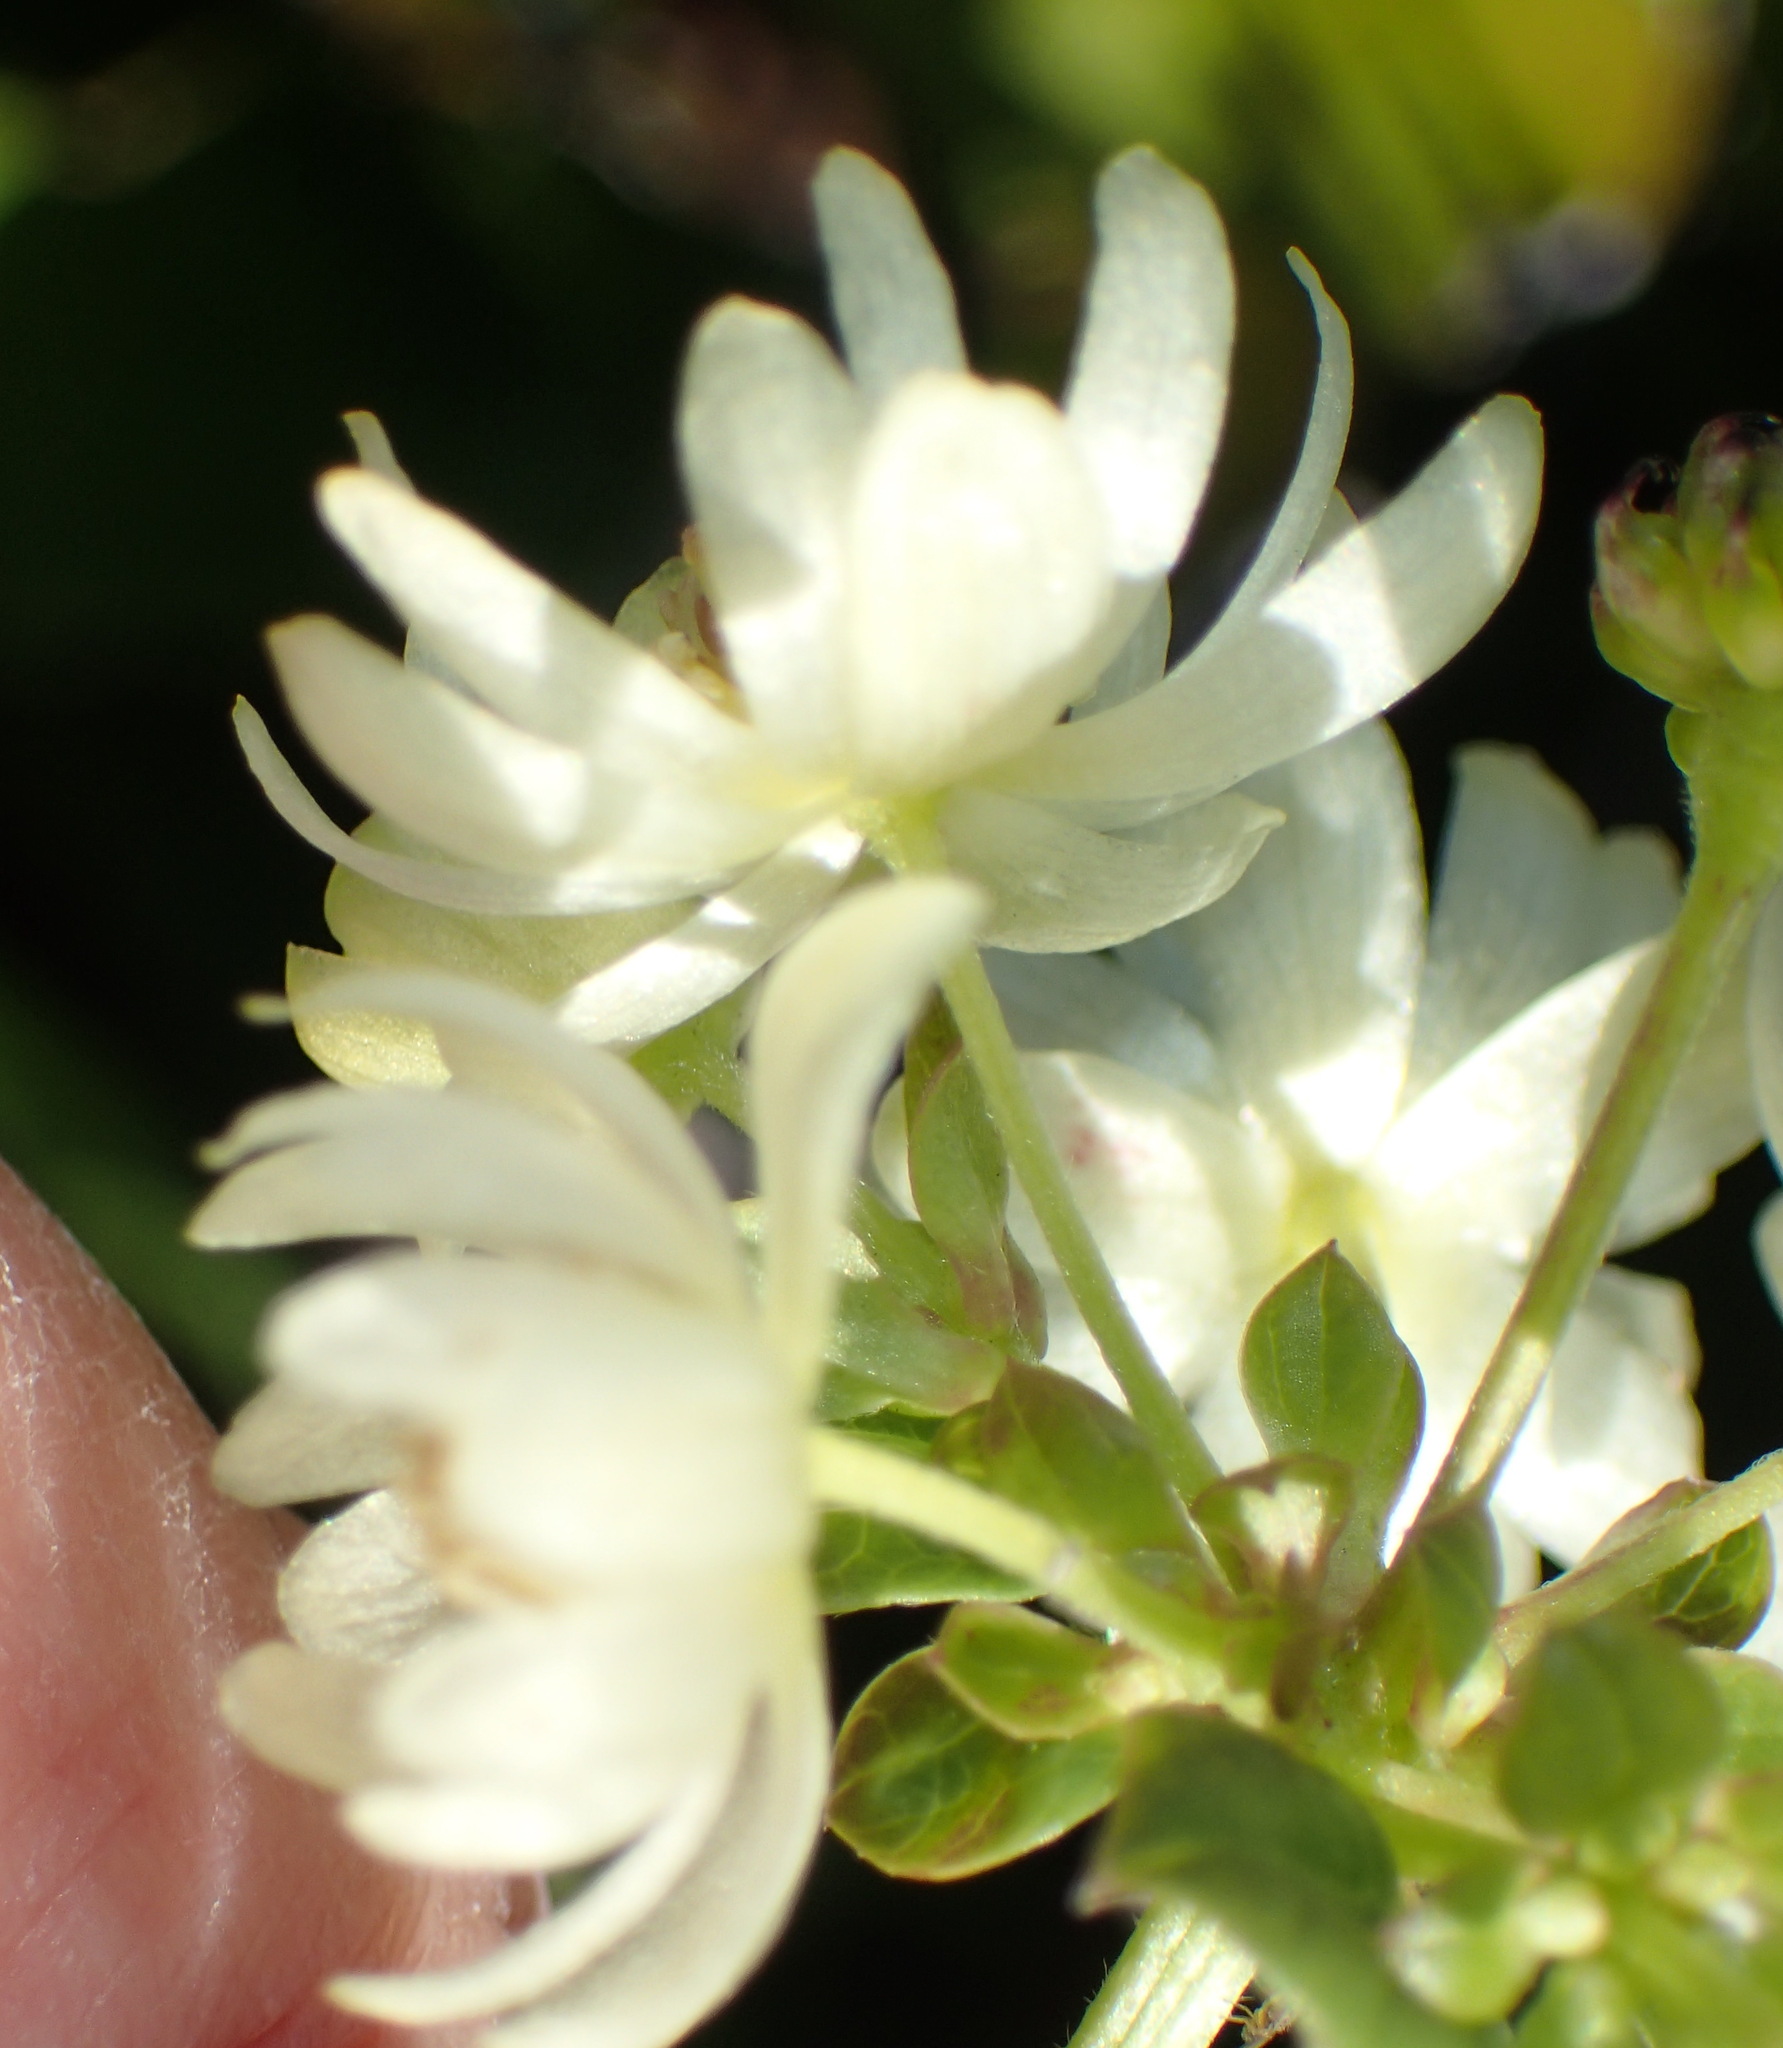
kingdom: Plantae
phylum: Tracheophyta
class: Magnoliopsida
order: Ranunculales
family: Ranunculaceae
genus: Knowltonia
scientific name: Knowltonia vesicatoria
